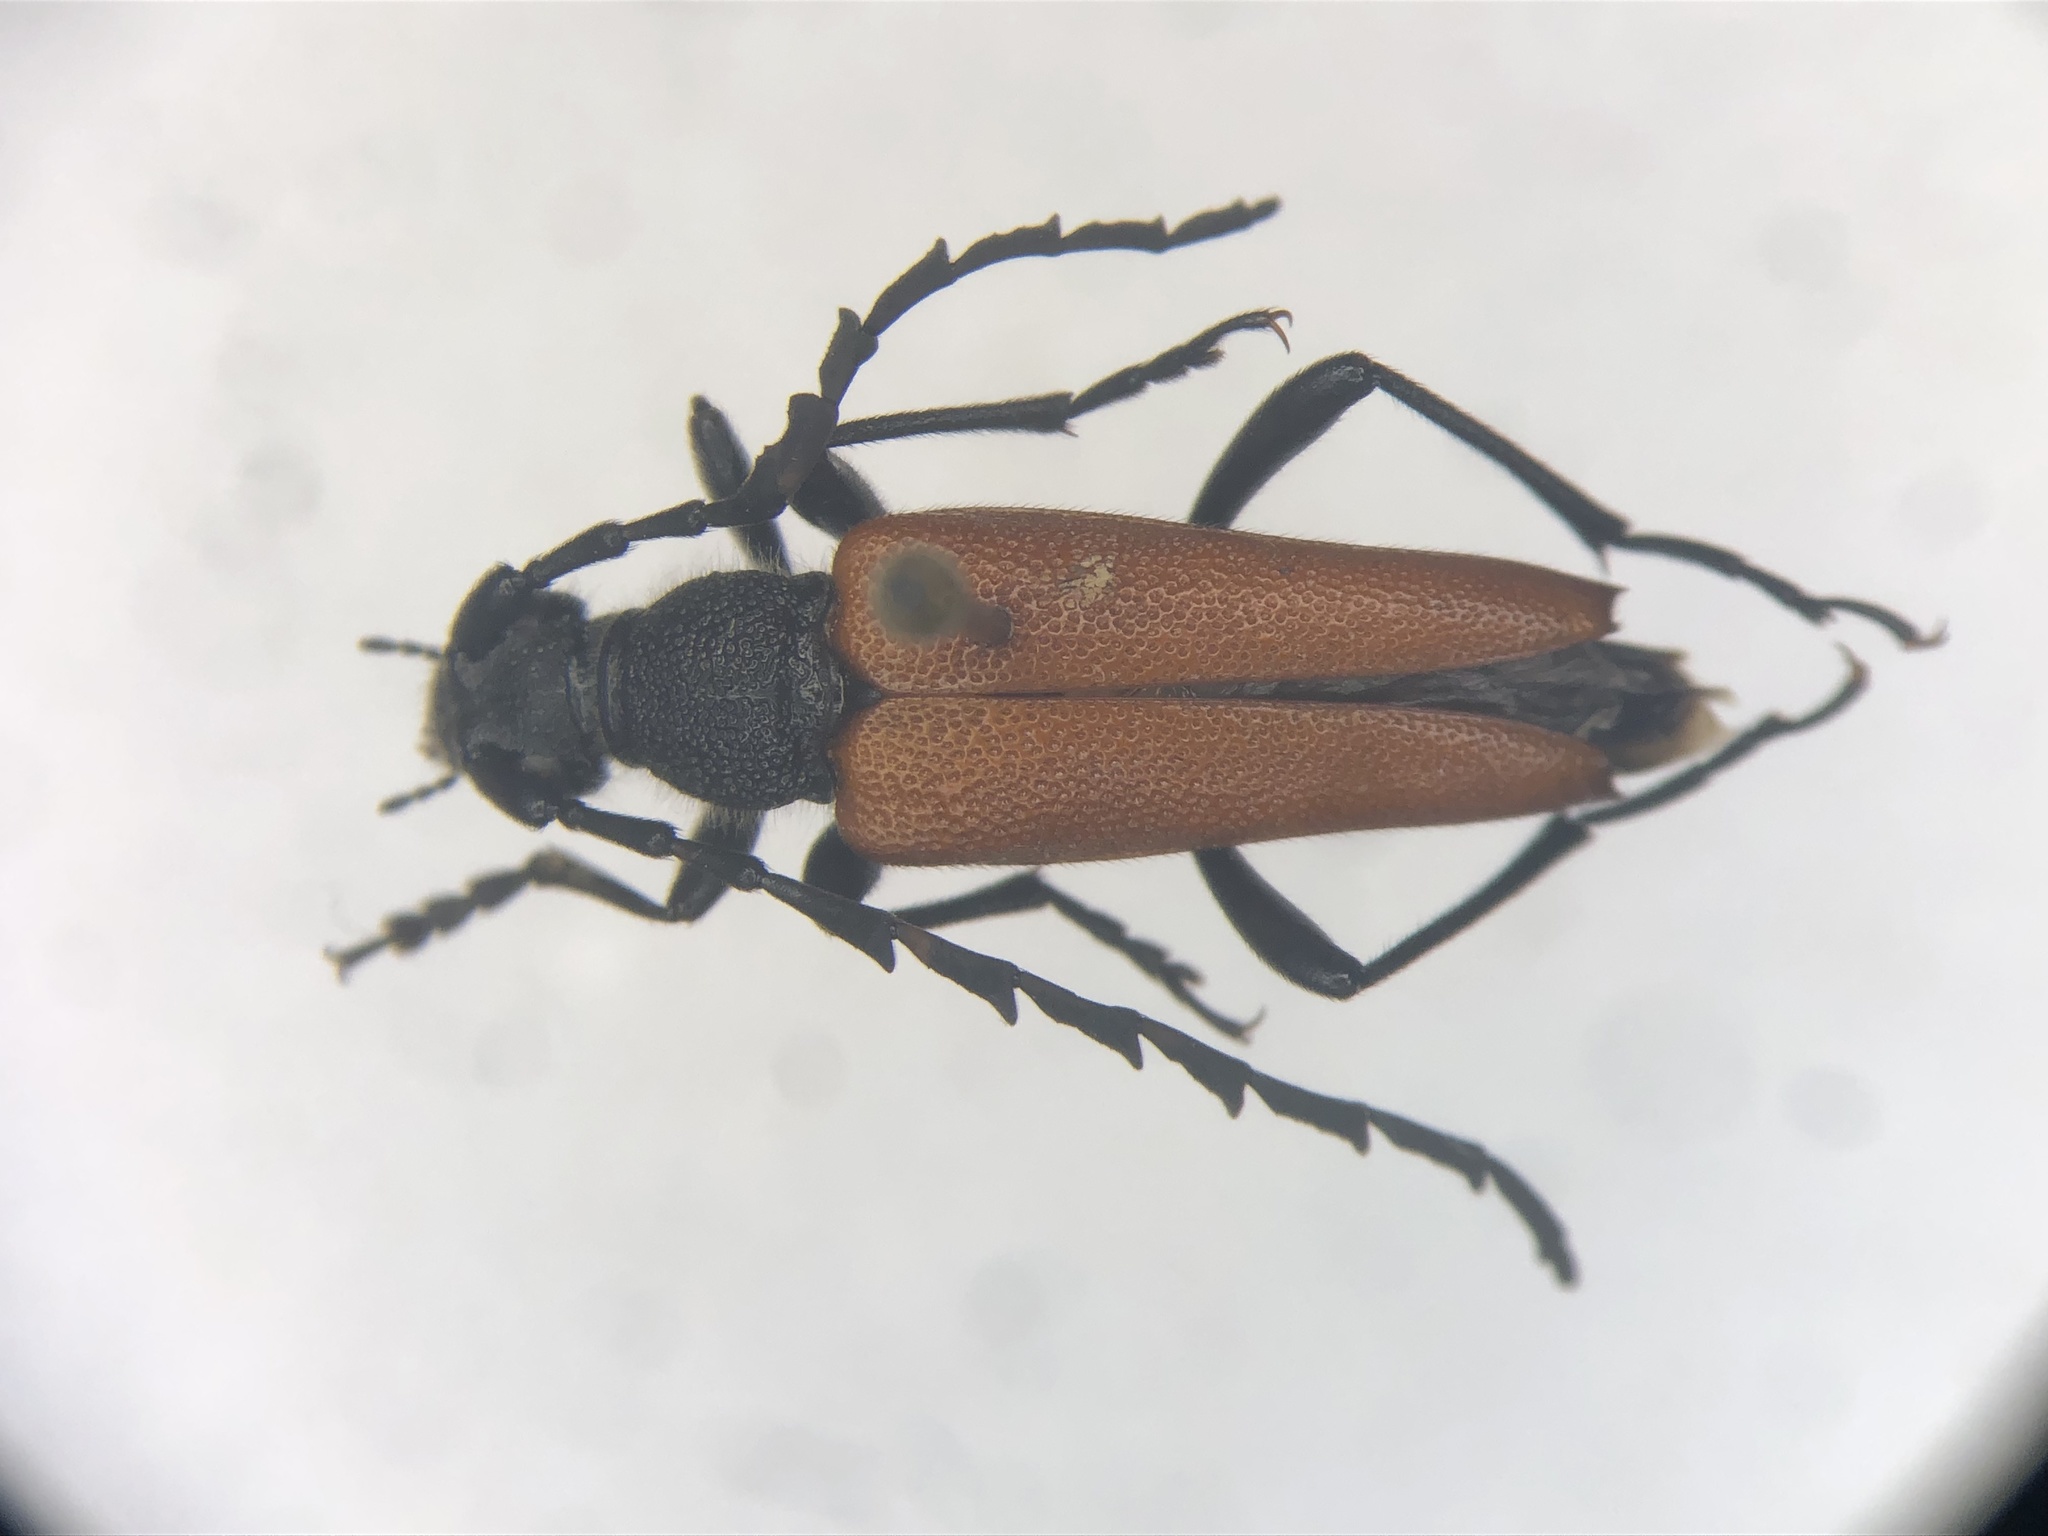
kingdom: Animalia
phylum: Arthropoda
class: Insecta
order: Coleoptera
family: Cerambycidae
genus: Stictoleptura
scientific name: Stictoleptura canadensis
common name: Red-shouldered pine borer
